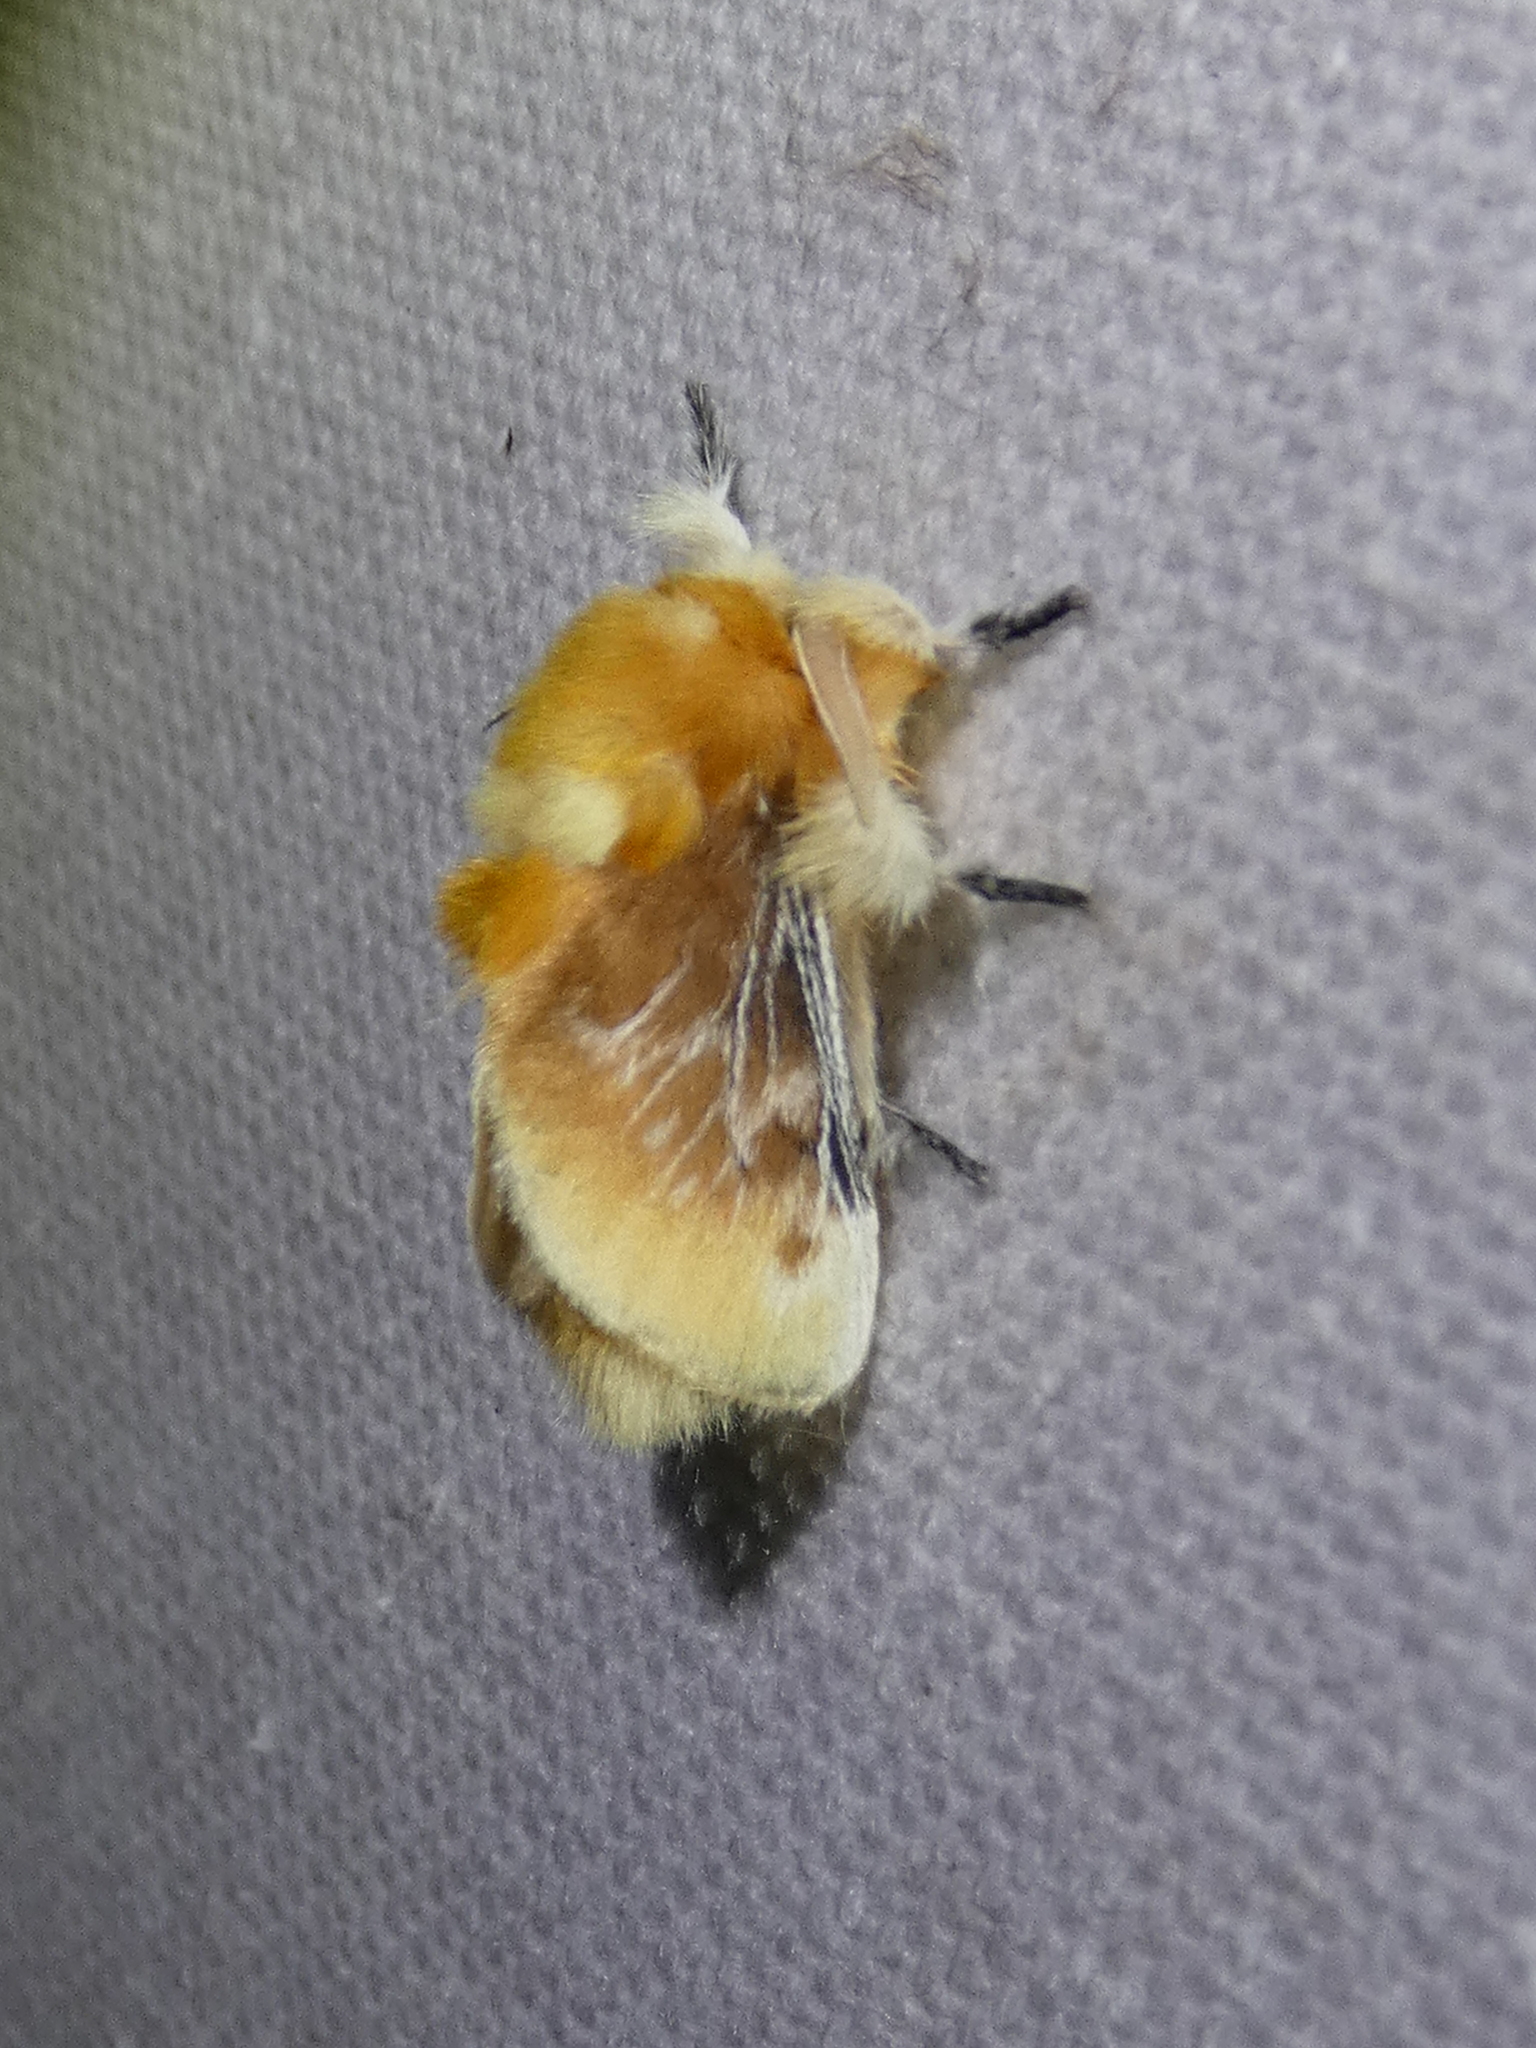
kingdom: Animalia
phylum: Arthropoda
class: Insecta
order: Lepidoptera
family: Megalopygidae
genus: Megalopyge
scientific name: Megalopyge opercularis
